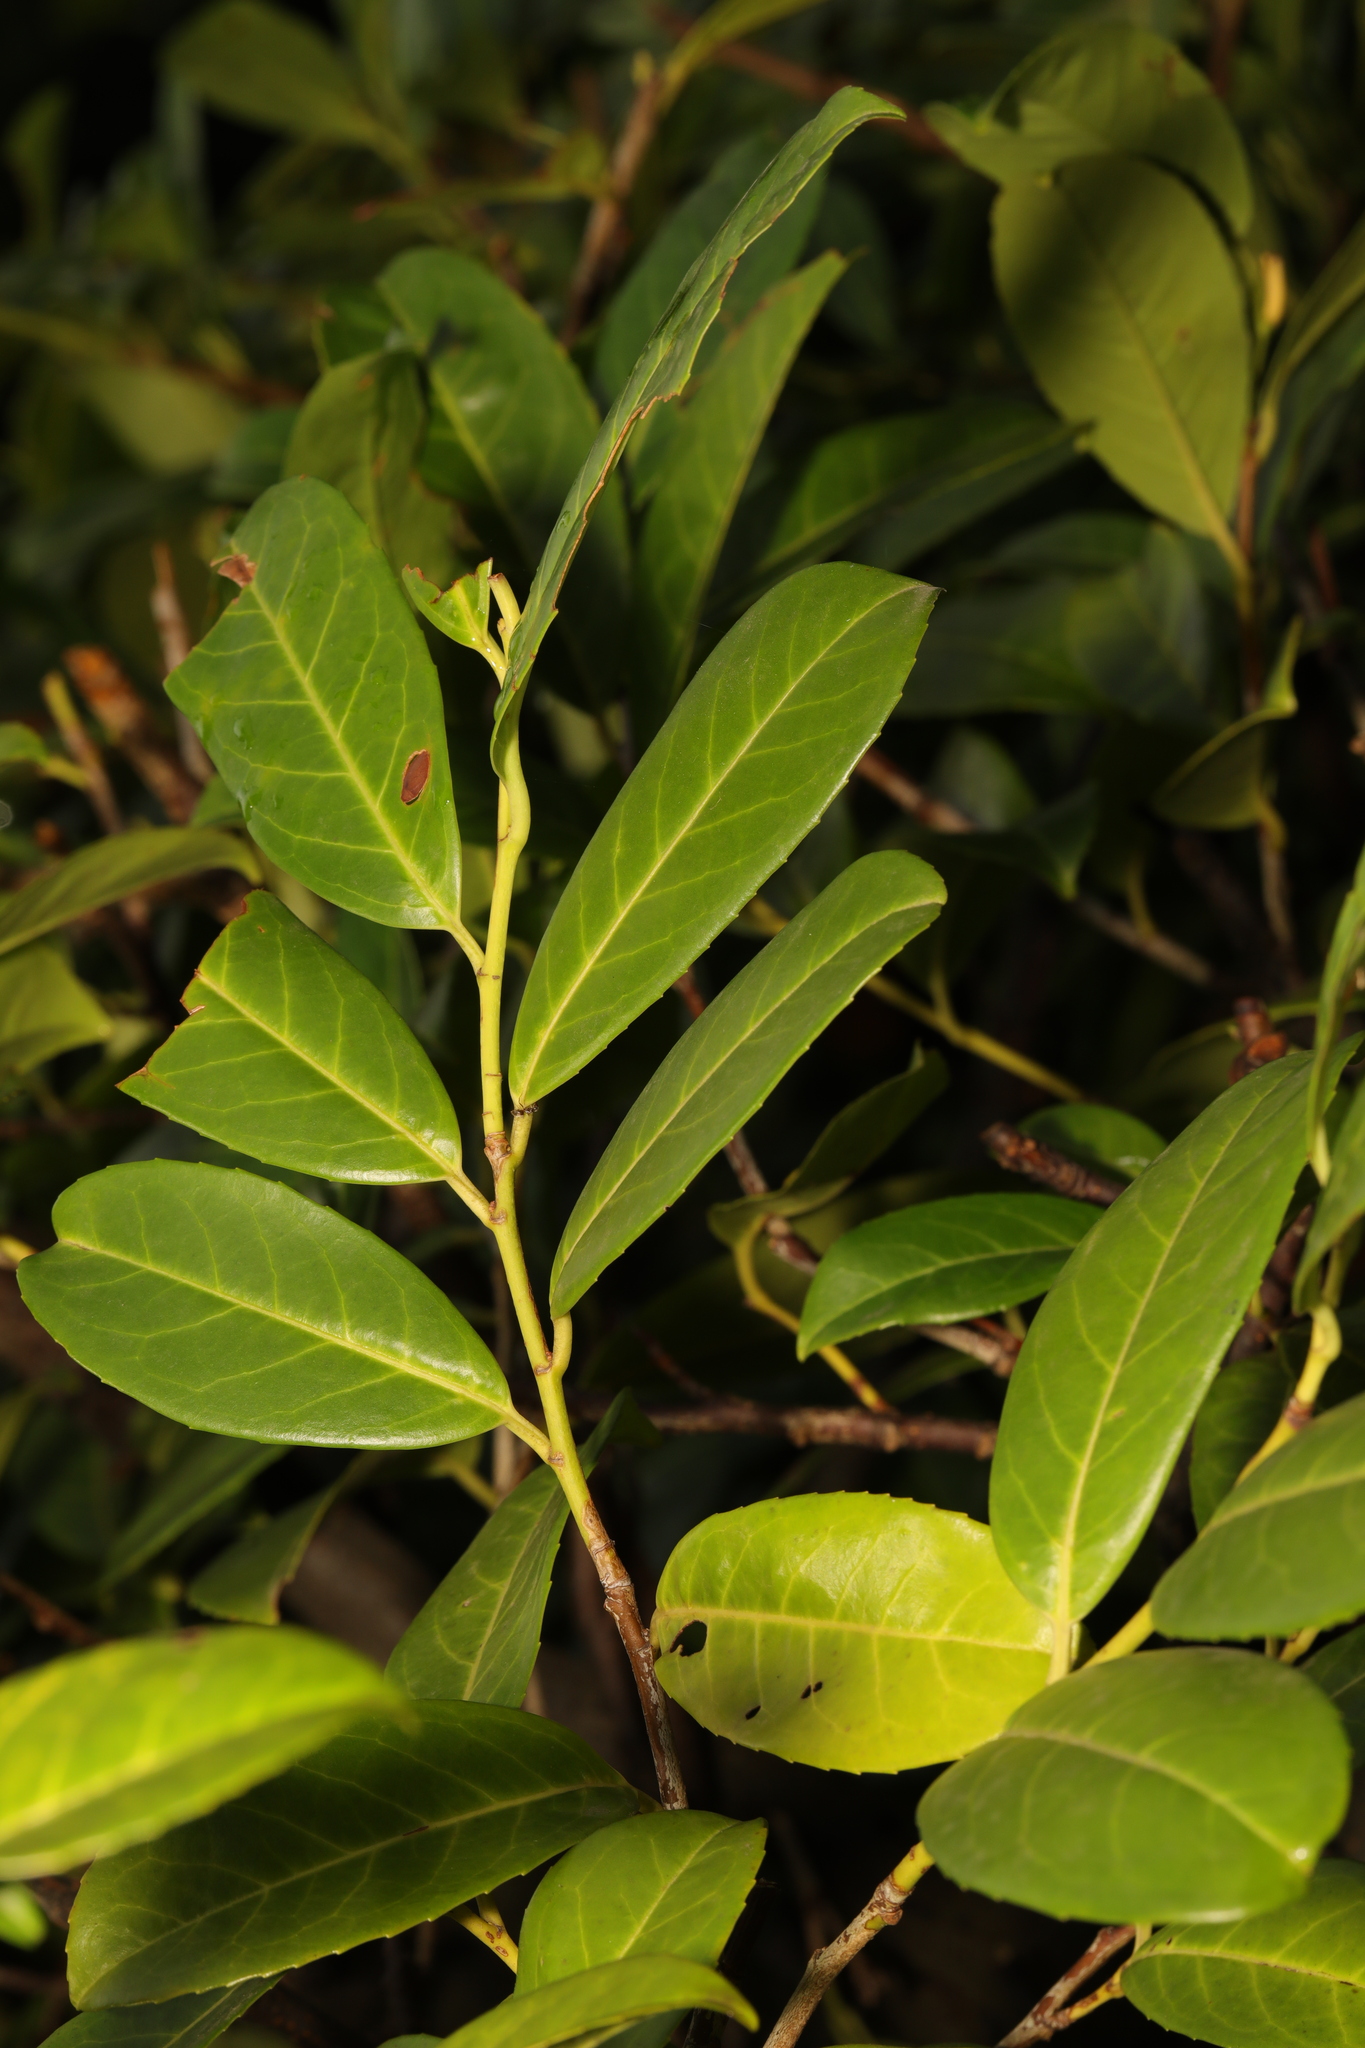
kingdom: Plantae
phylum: Tracheophyta
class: Magnoliopsida
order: Rosales
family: Rosaceae
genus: Prunus
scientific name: Prunus laurocerasus
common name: Cherry laurel
